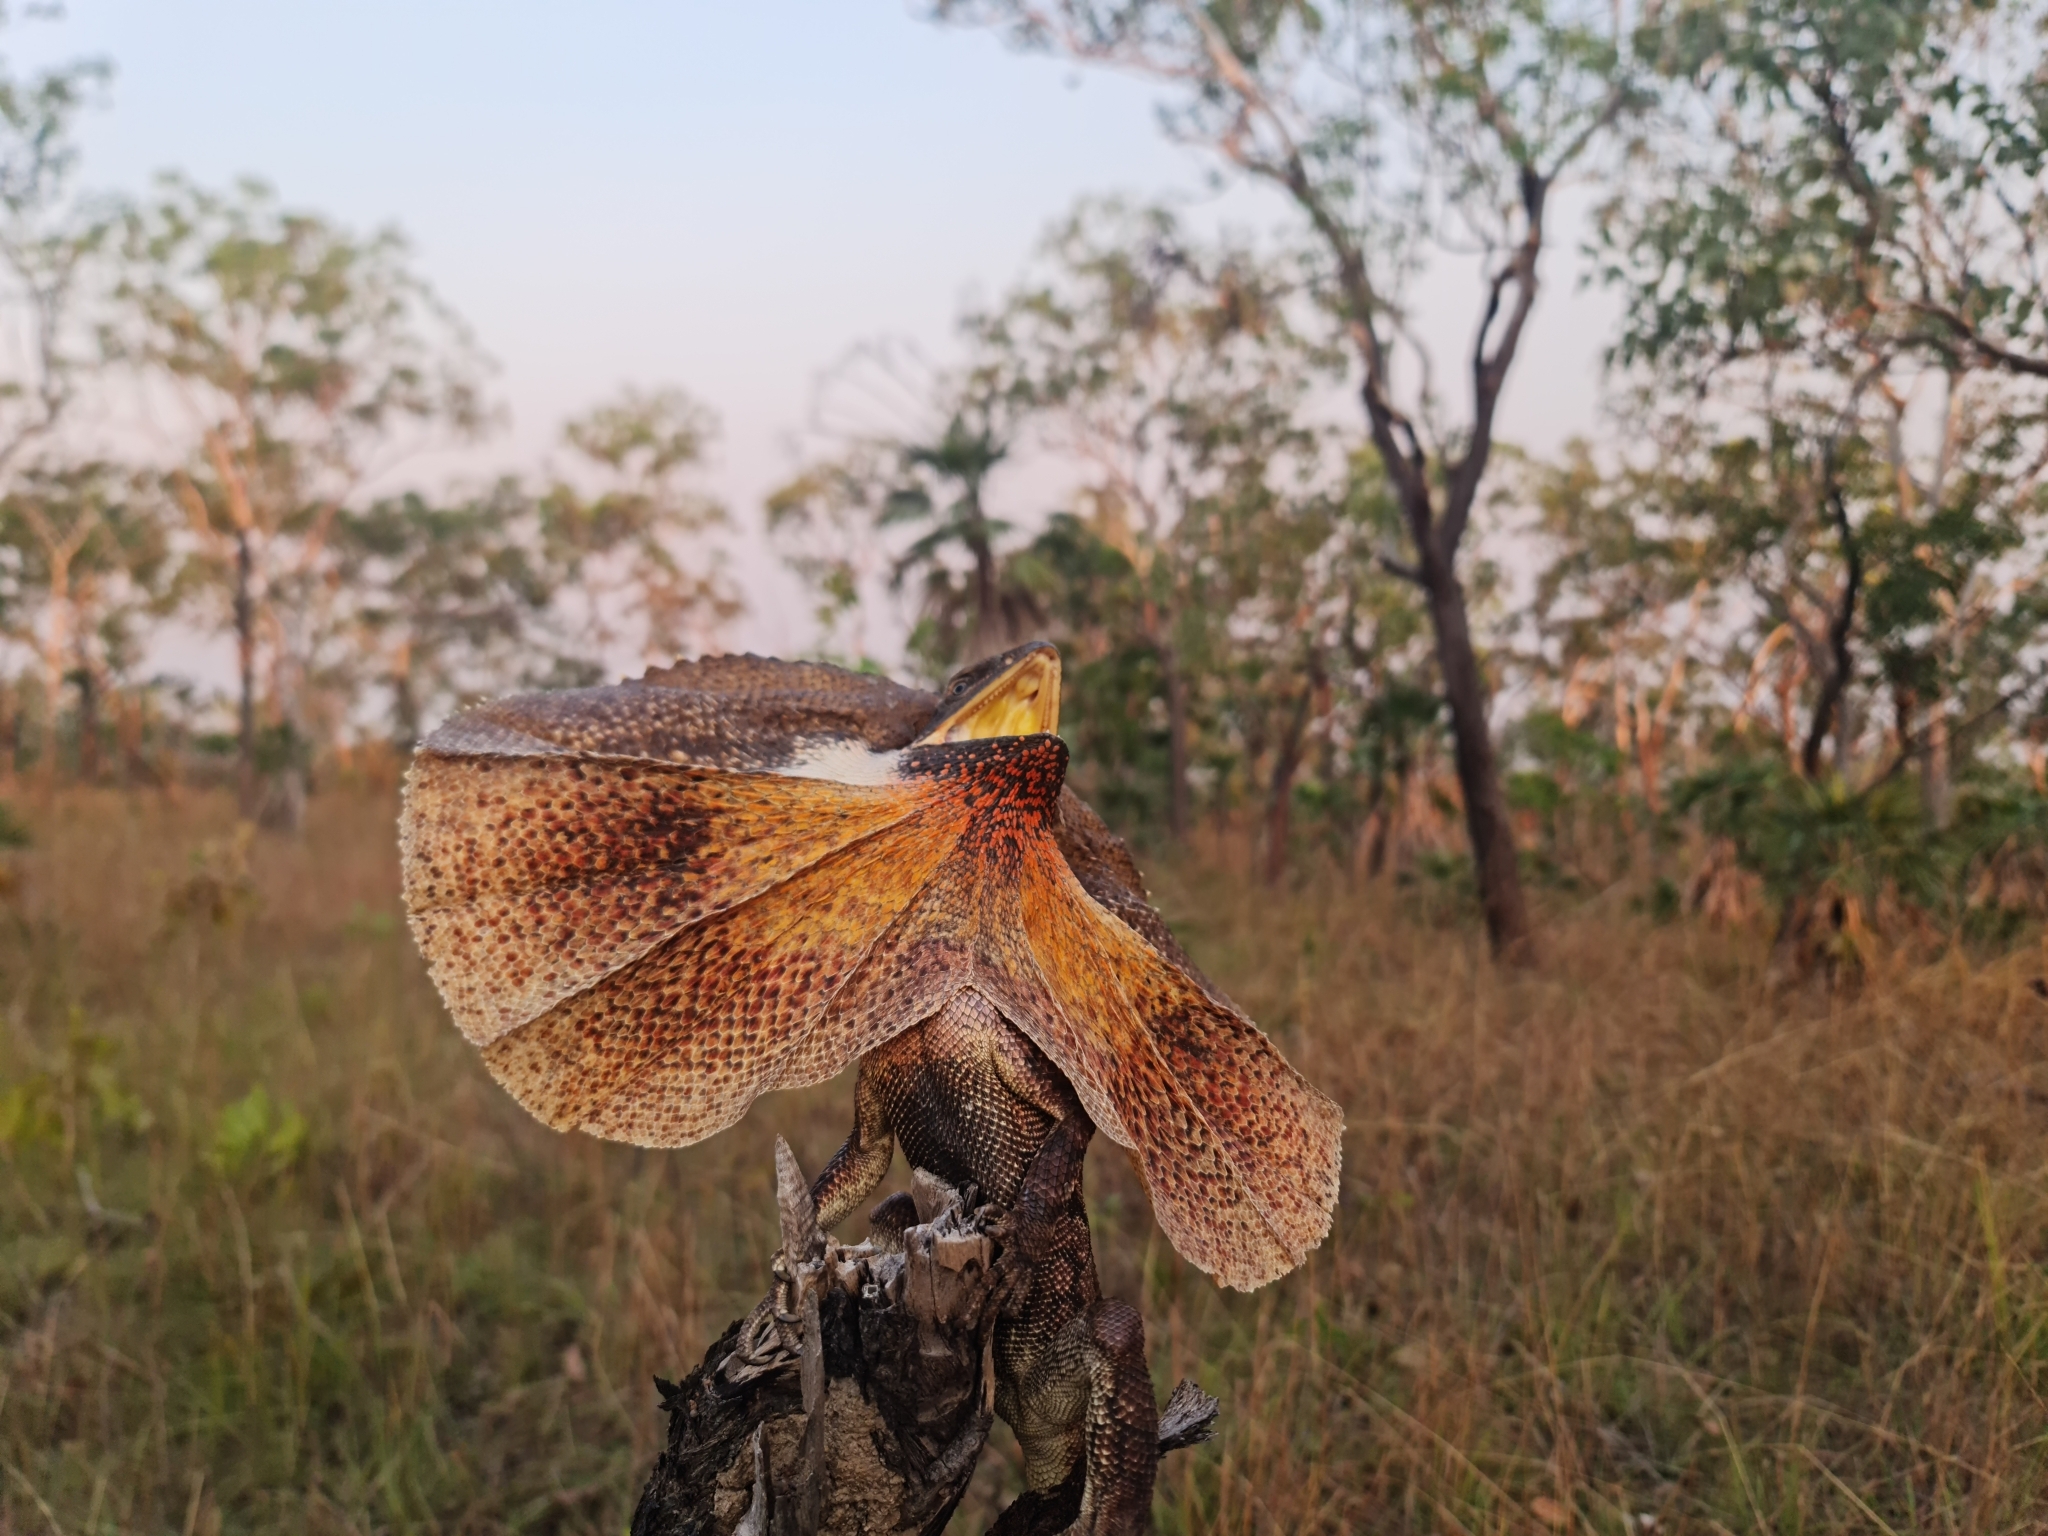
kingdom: Animalia
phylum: Chordata
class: Squamata
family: Agamidae
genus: Chlamydosaurus
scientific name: Chlamydosaurus kingii
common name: Frilled lizard
